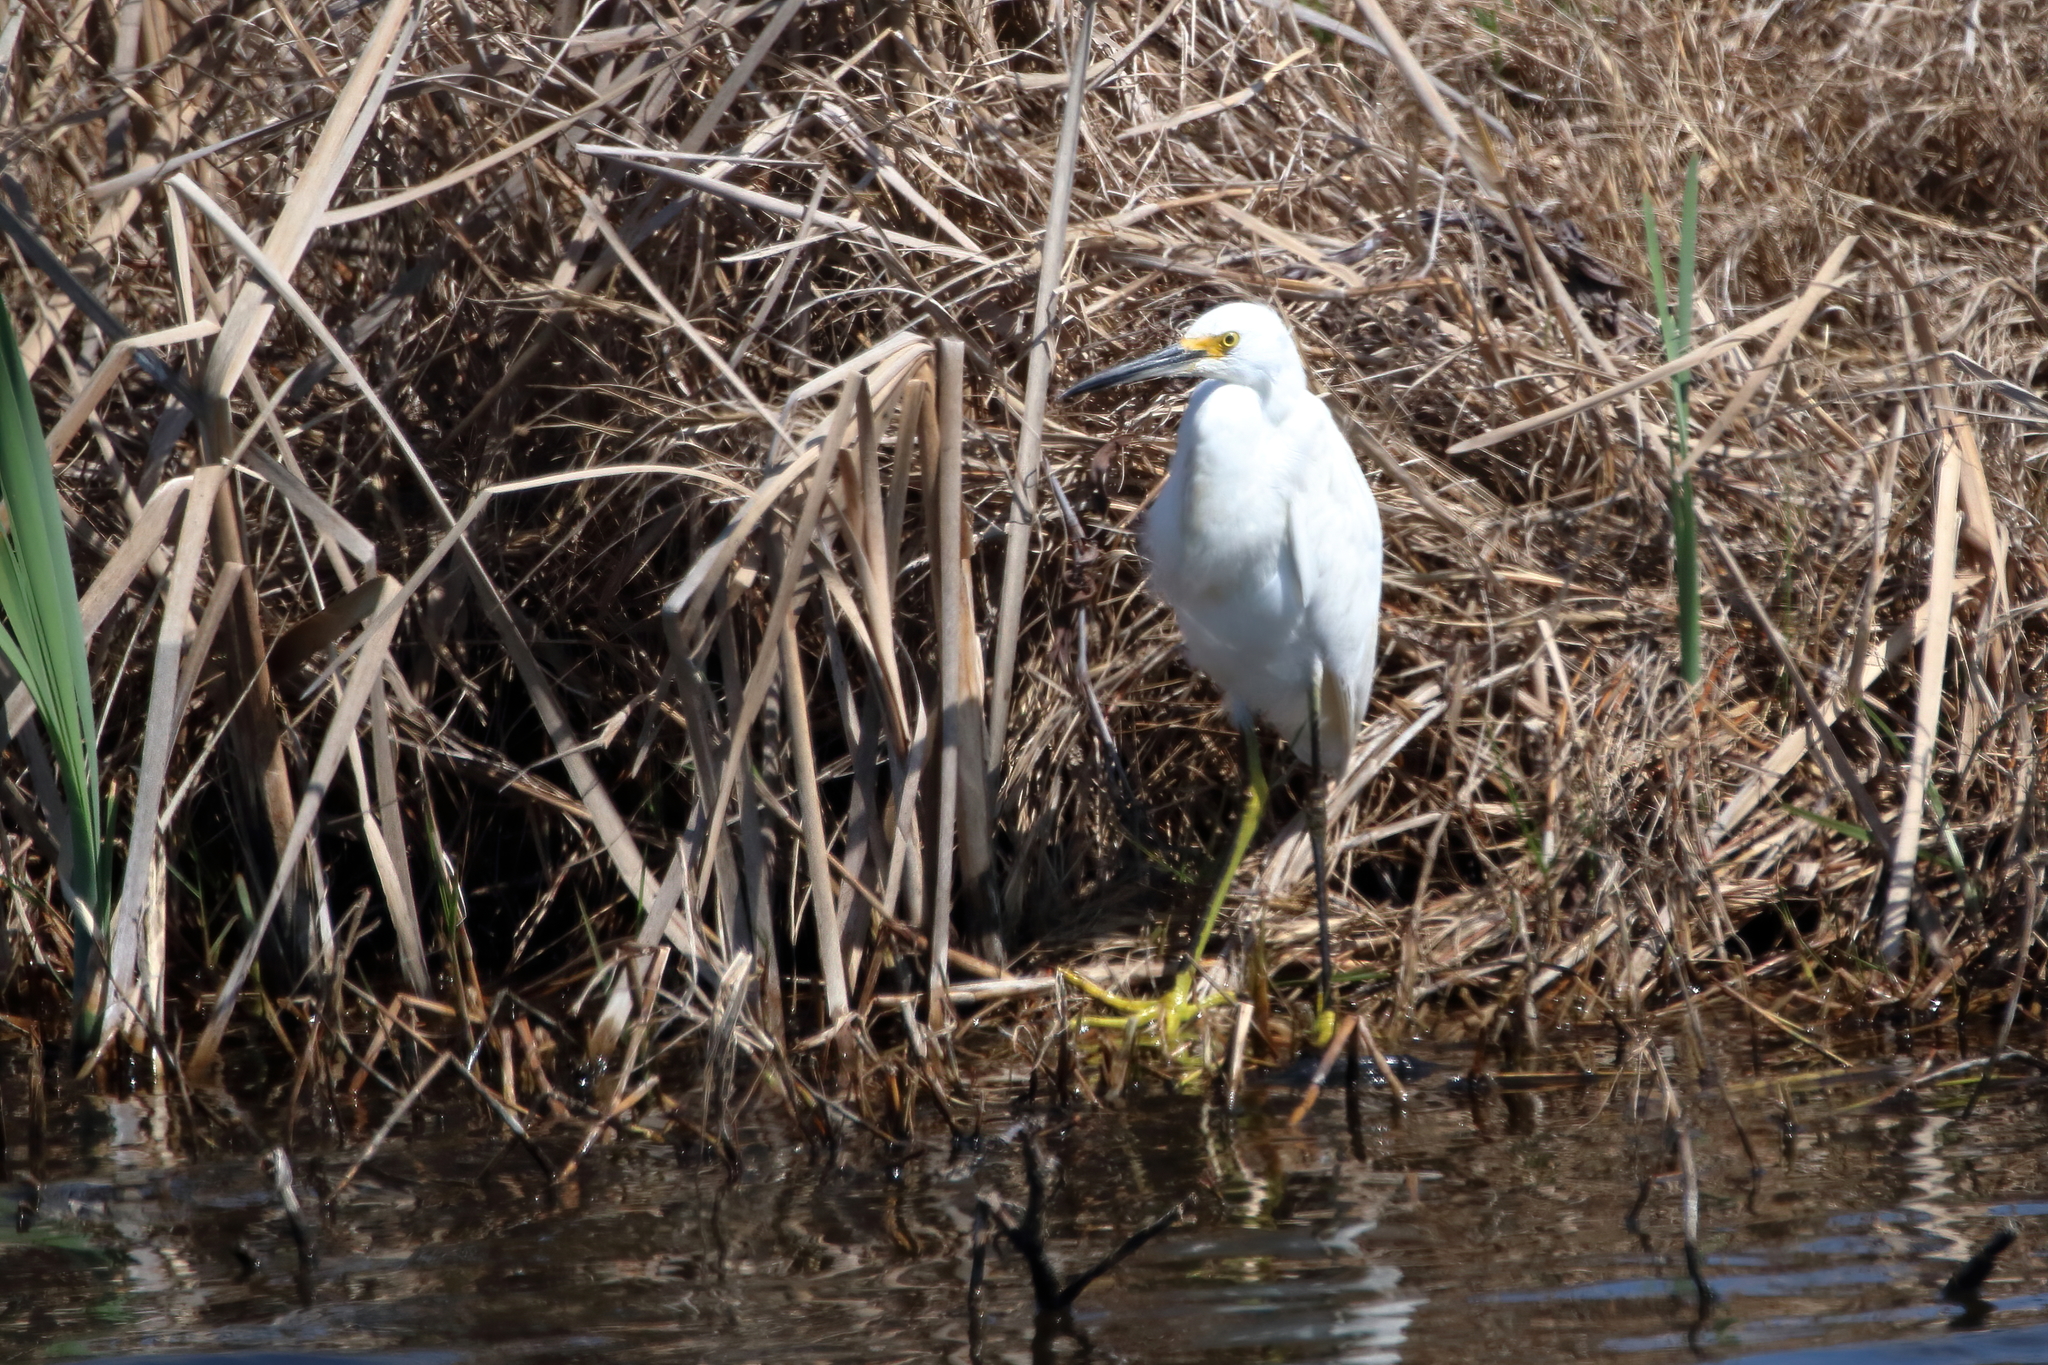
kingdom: Animalia
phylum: Chordata
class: Aves
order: Pelecaniformes
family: Ardeidae
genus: Egretta
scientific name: Egretta thula
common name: Snowy egret
